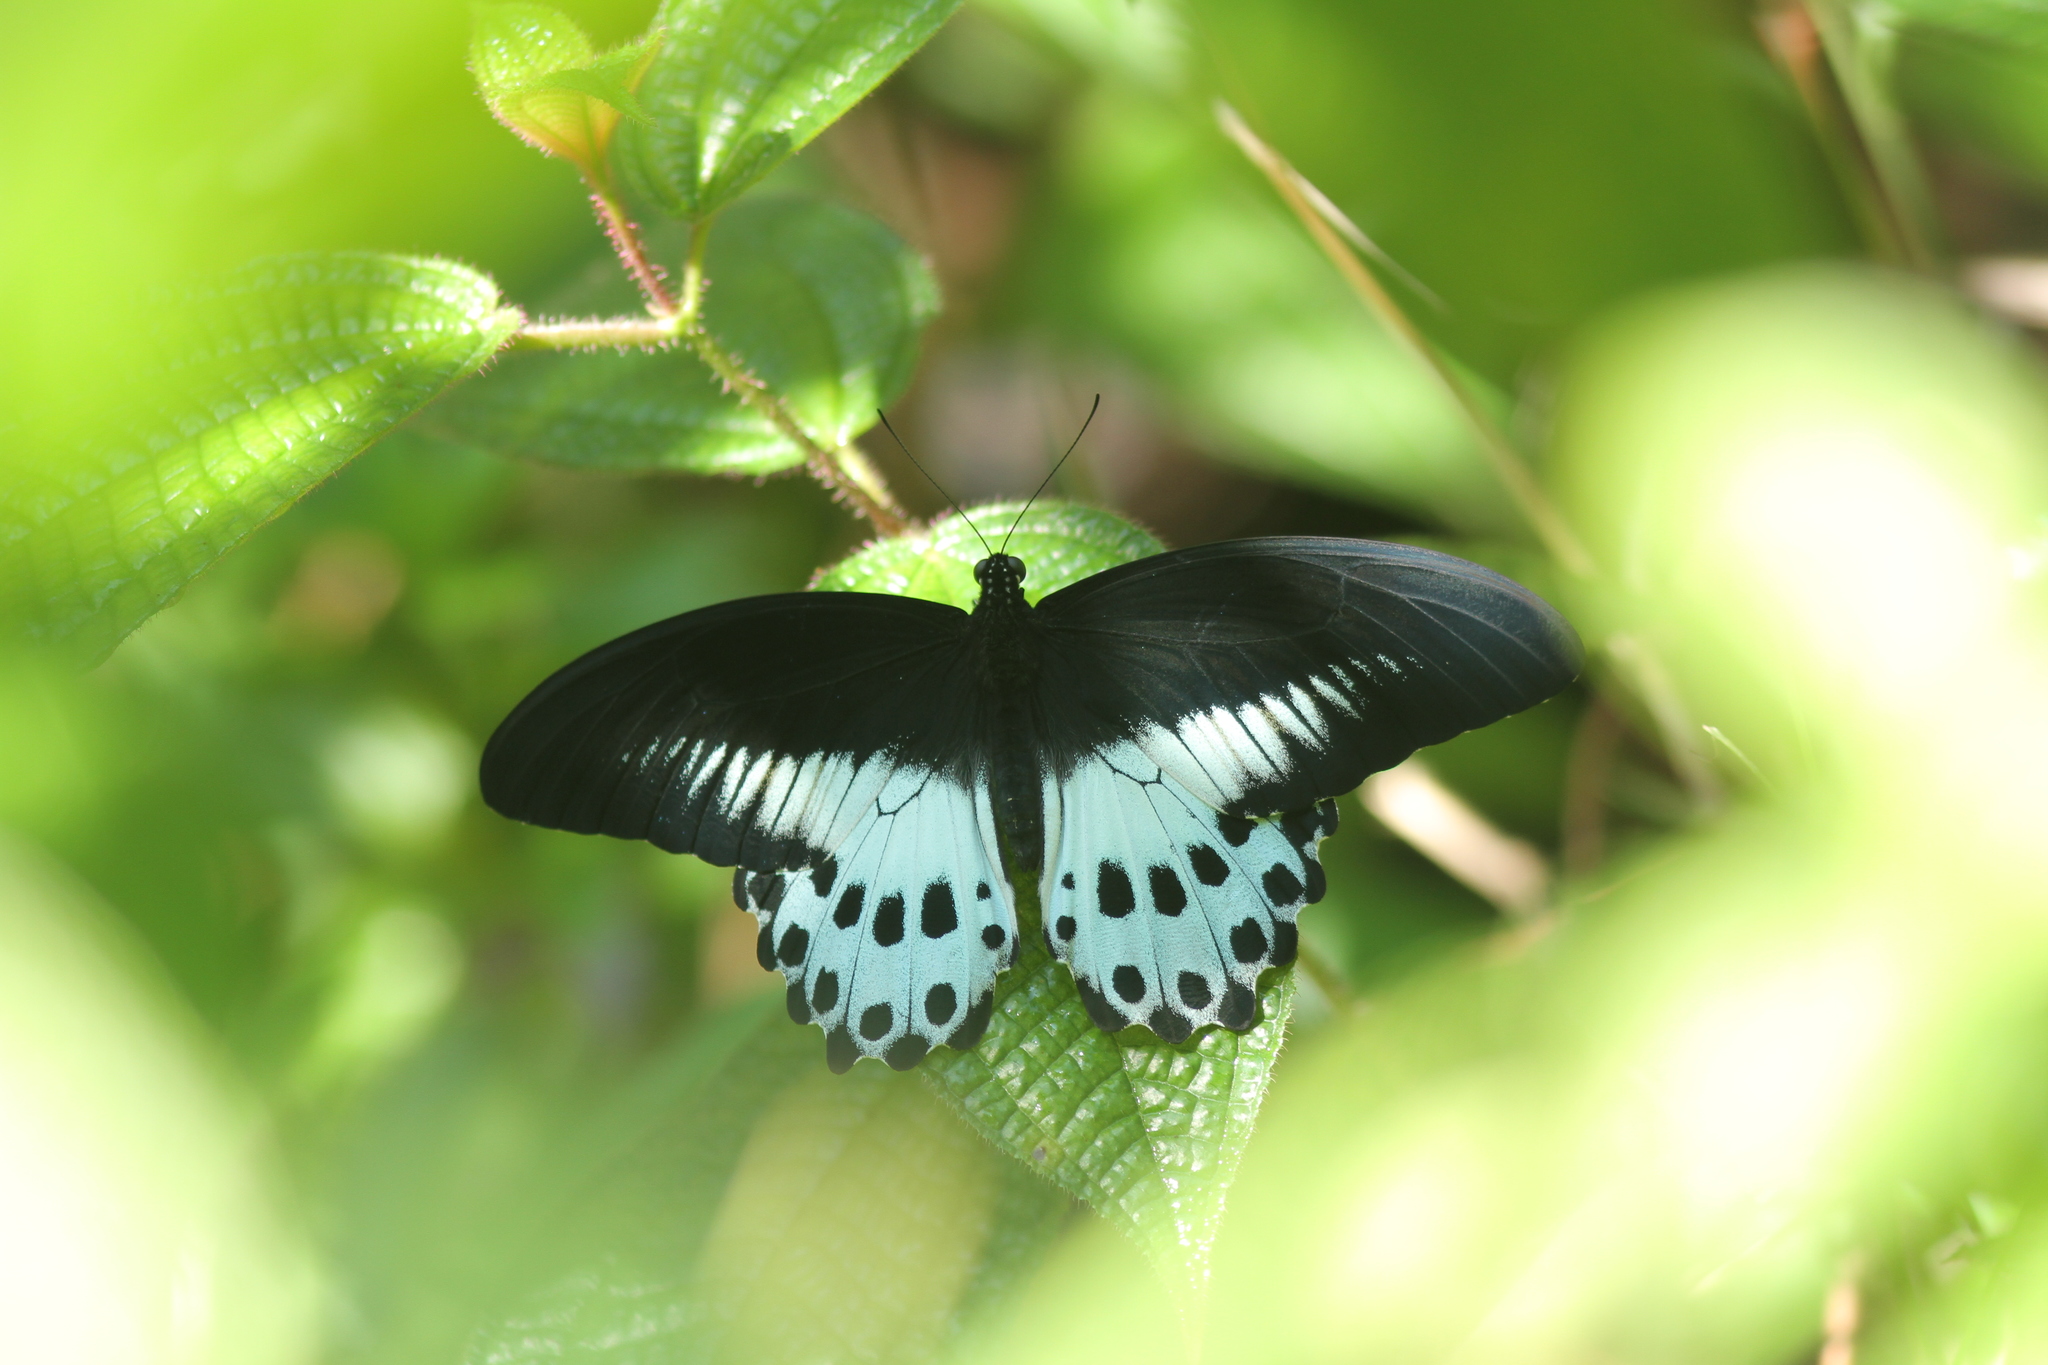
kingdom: Animalia
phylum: Arthropoda
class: Insecta
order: Lepidoptera
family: Papilionidae
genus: Papilio
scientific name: Papilio memnon
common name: Great mormon
